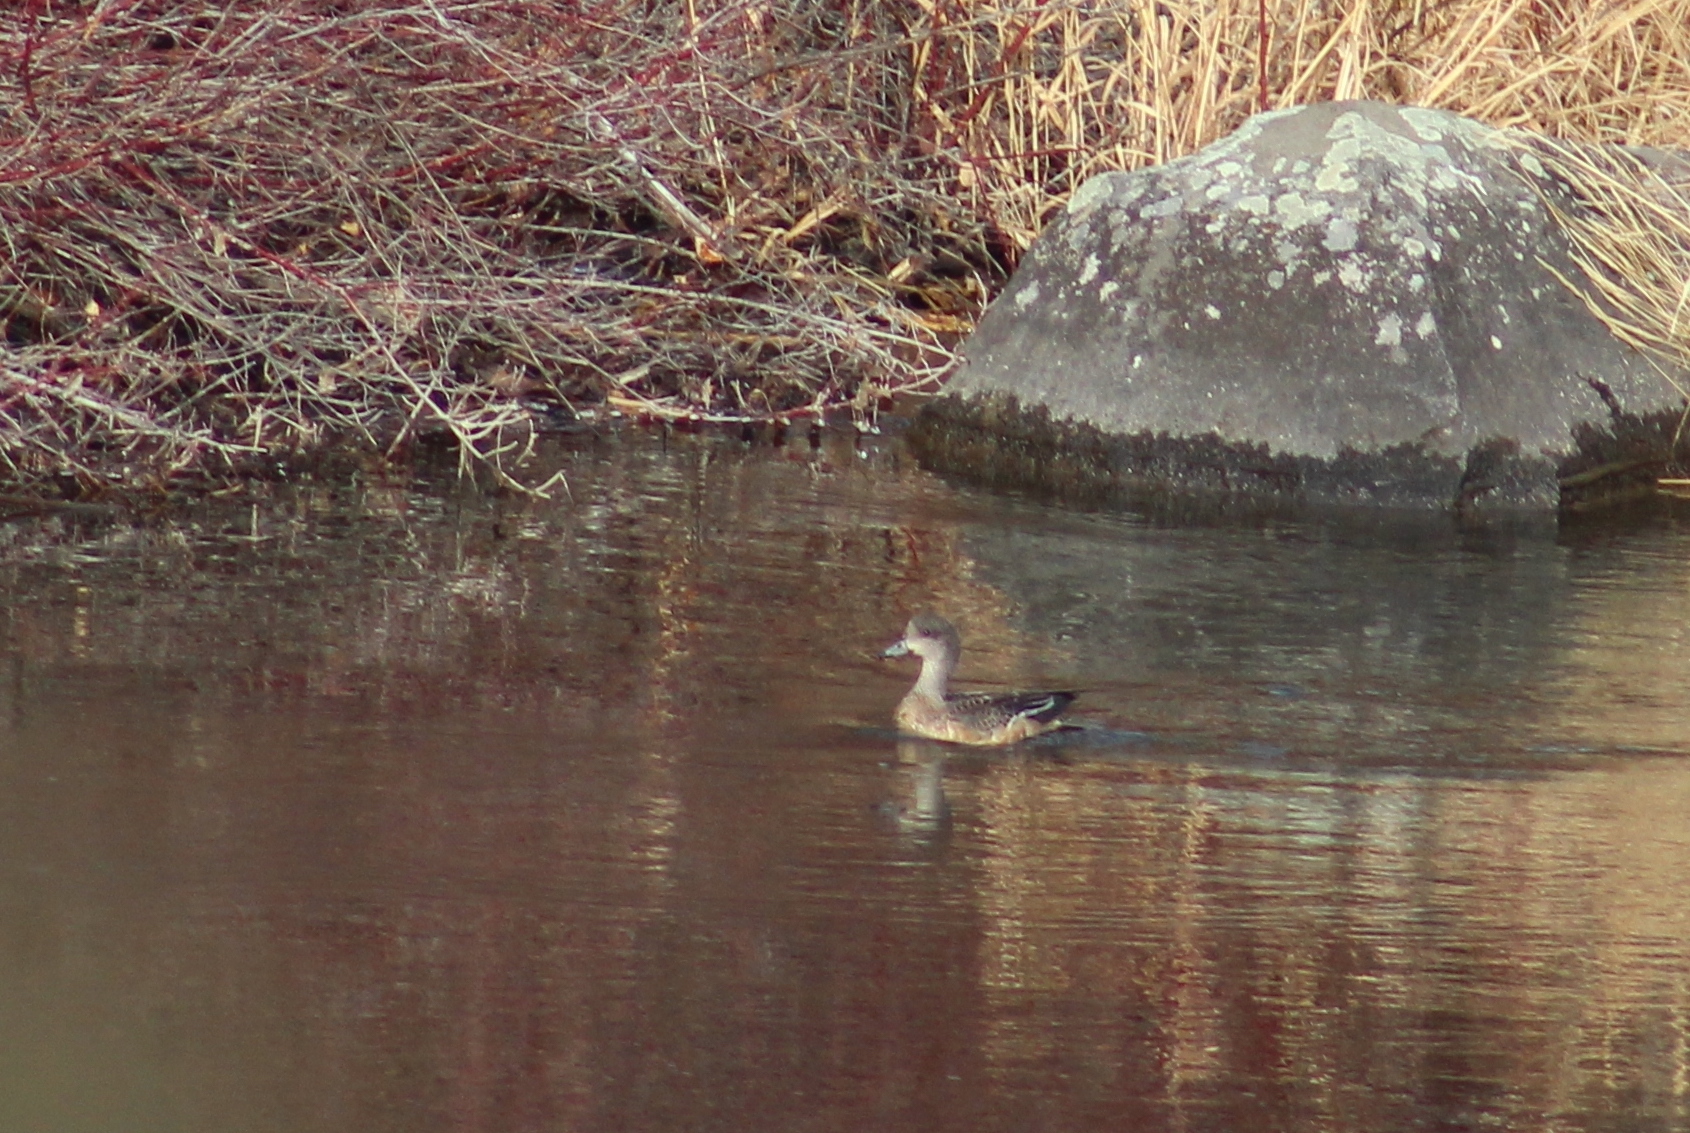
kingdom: Animalia
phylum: Chordata
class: Aves
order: Anseriformes
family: Anatidae
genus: Mareca
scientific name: Mareca americana
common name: American wigeon
